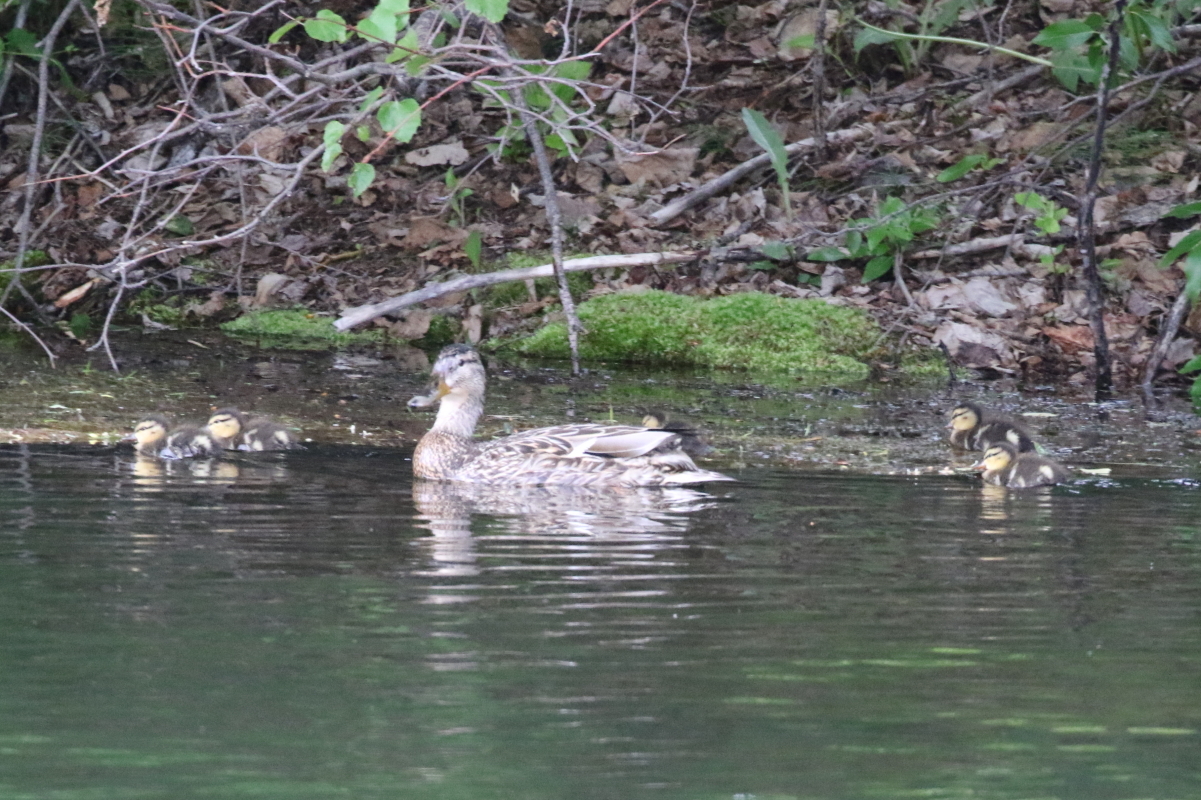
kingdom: Animalia
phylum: Chordata
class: Aves
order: Anseriformes
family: Anatidae
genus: Anas
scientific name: Anas platyrhynchos
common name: Mallard
